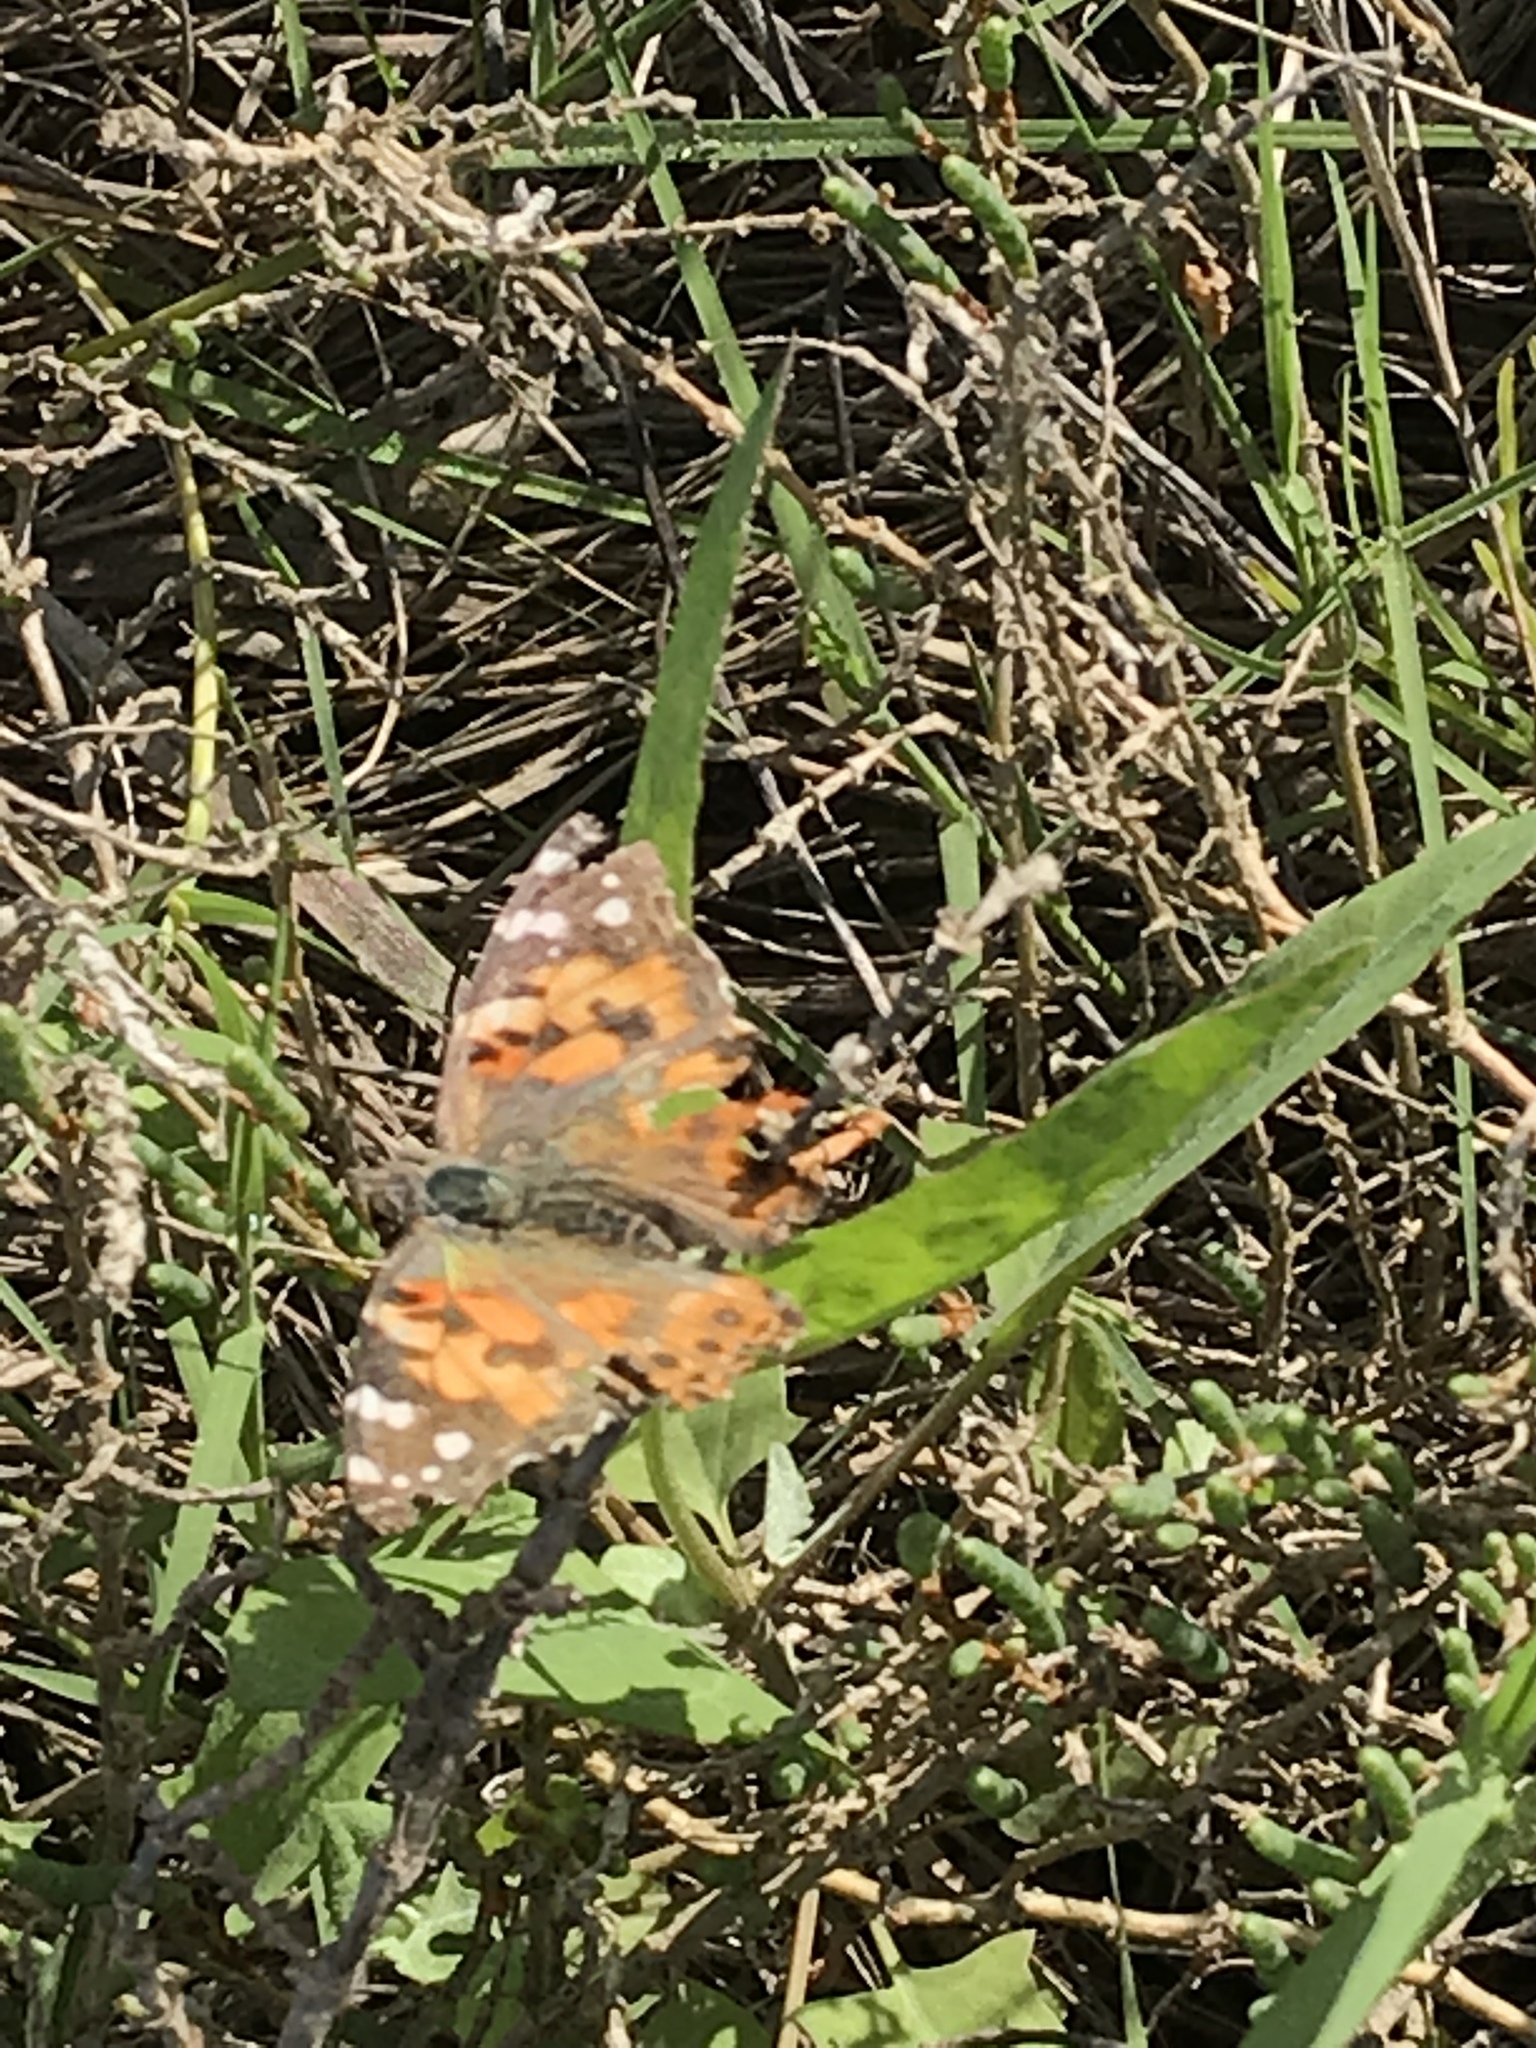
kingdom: Animalia
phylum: Arthropoda
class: Insecta
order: Lepidoptera
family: Nymphalidae
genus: Vanessa
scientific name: Vanessa cardui
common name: Painted lady
